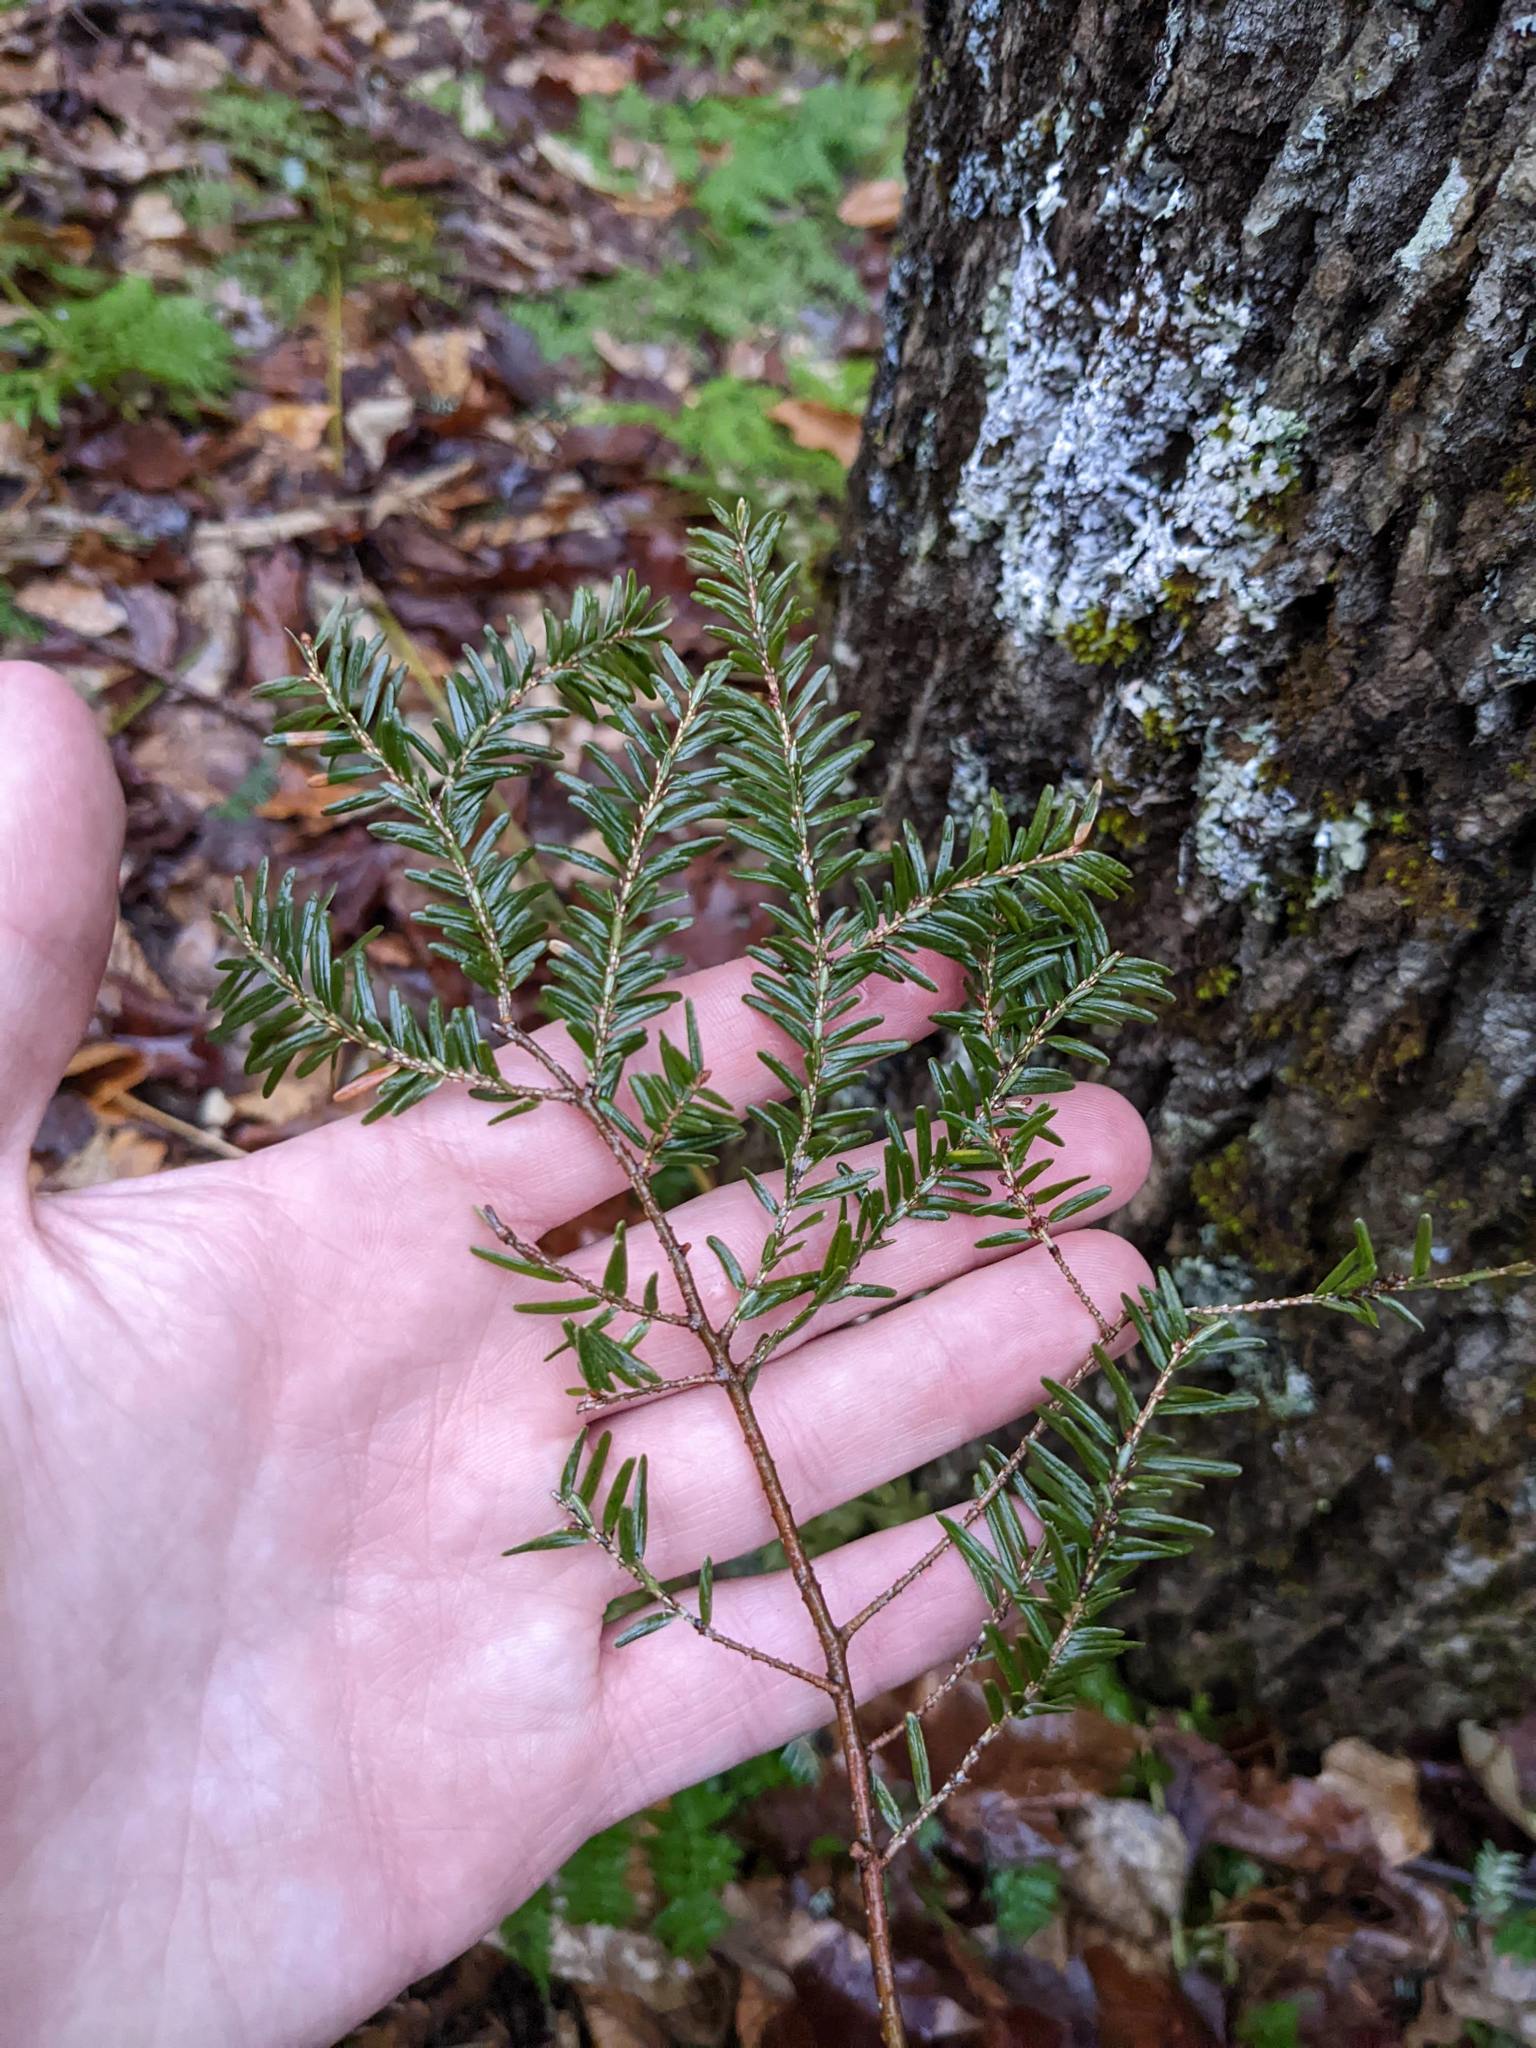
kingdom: Plantae
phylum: Tracheophyta
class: Pinopsida
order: Pinales
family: Pinaceae
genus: Tsuga
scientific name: Tsuga canadensis
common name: Eastern hemlock
